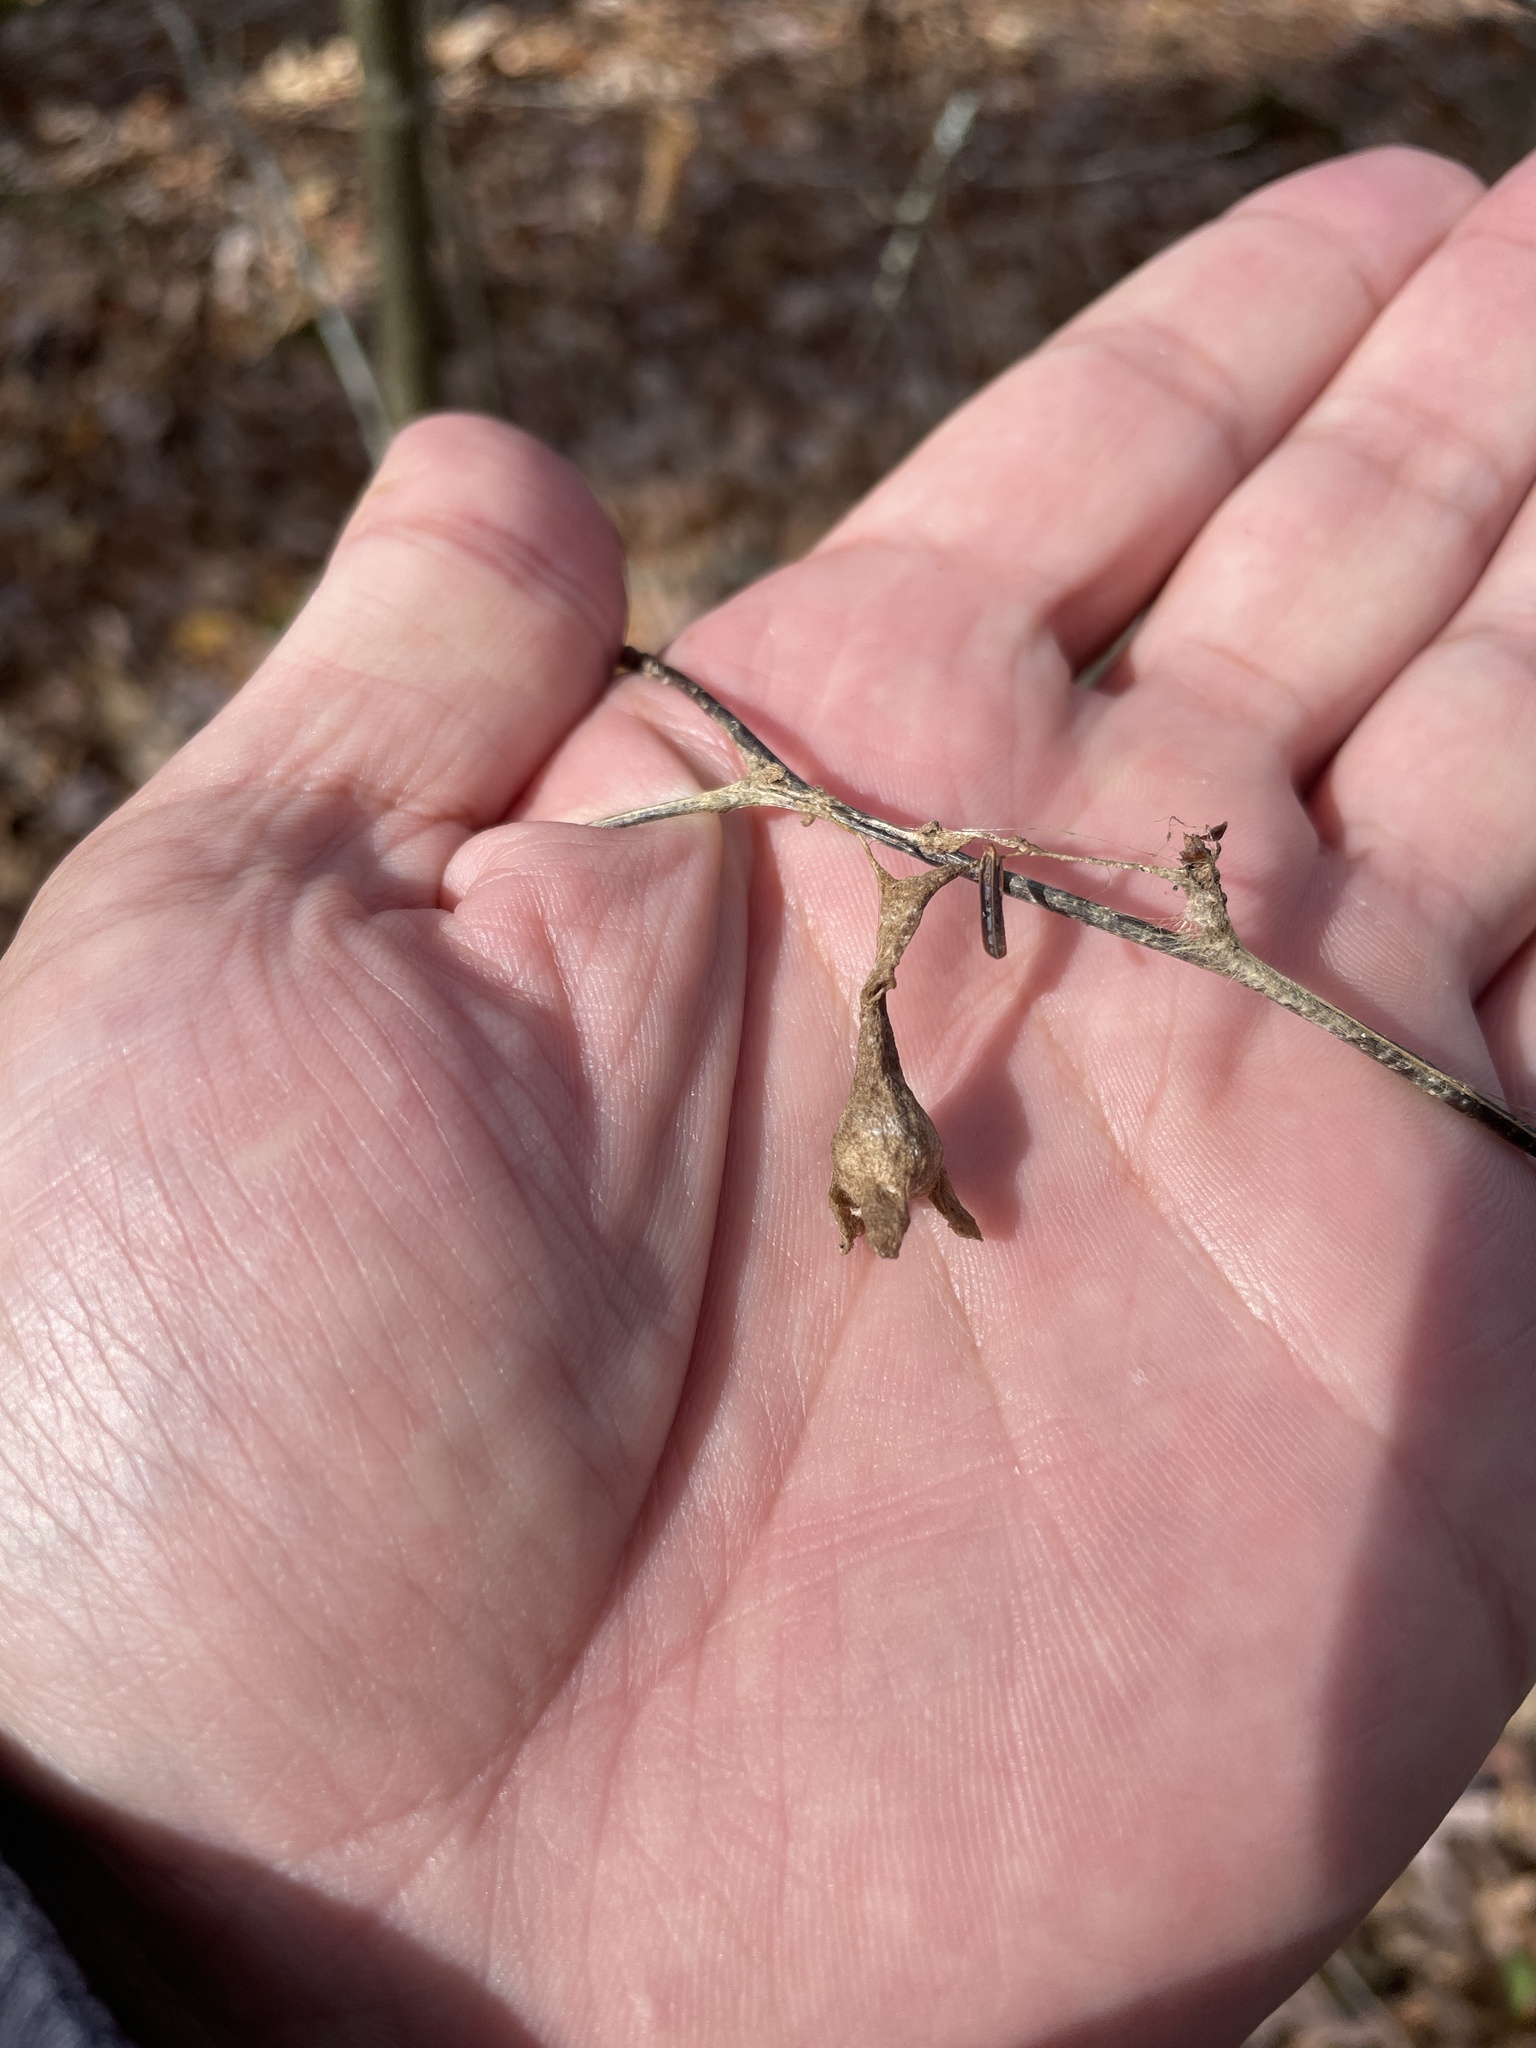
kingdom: Animalia
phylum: Arthropoda
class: Arachnida
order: Araneae
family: Araneidae
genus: Mastophora
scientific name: Mastophora phrynosoma
